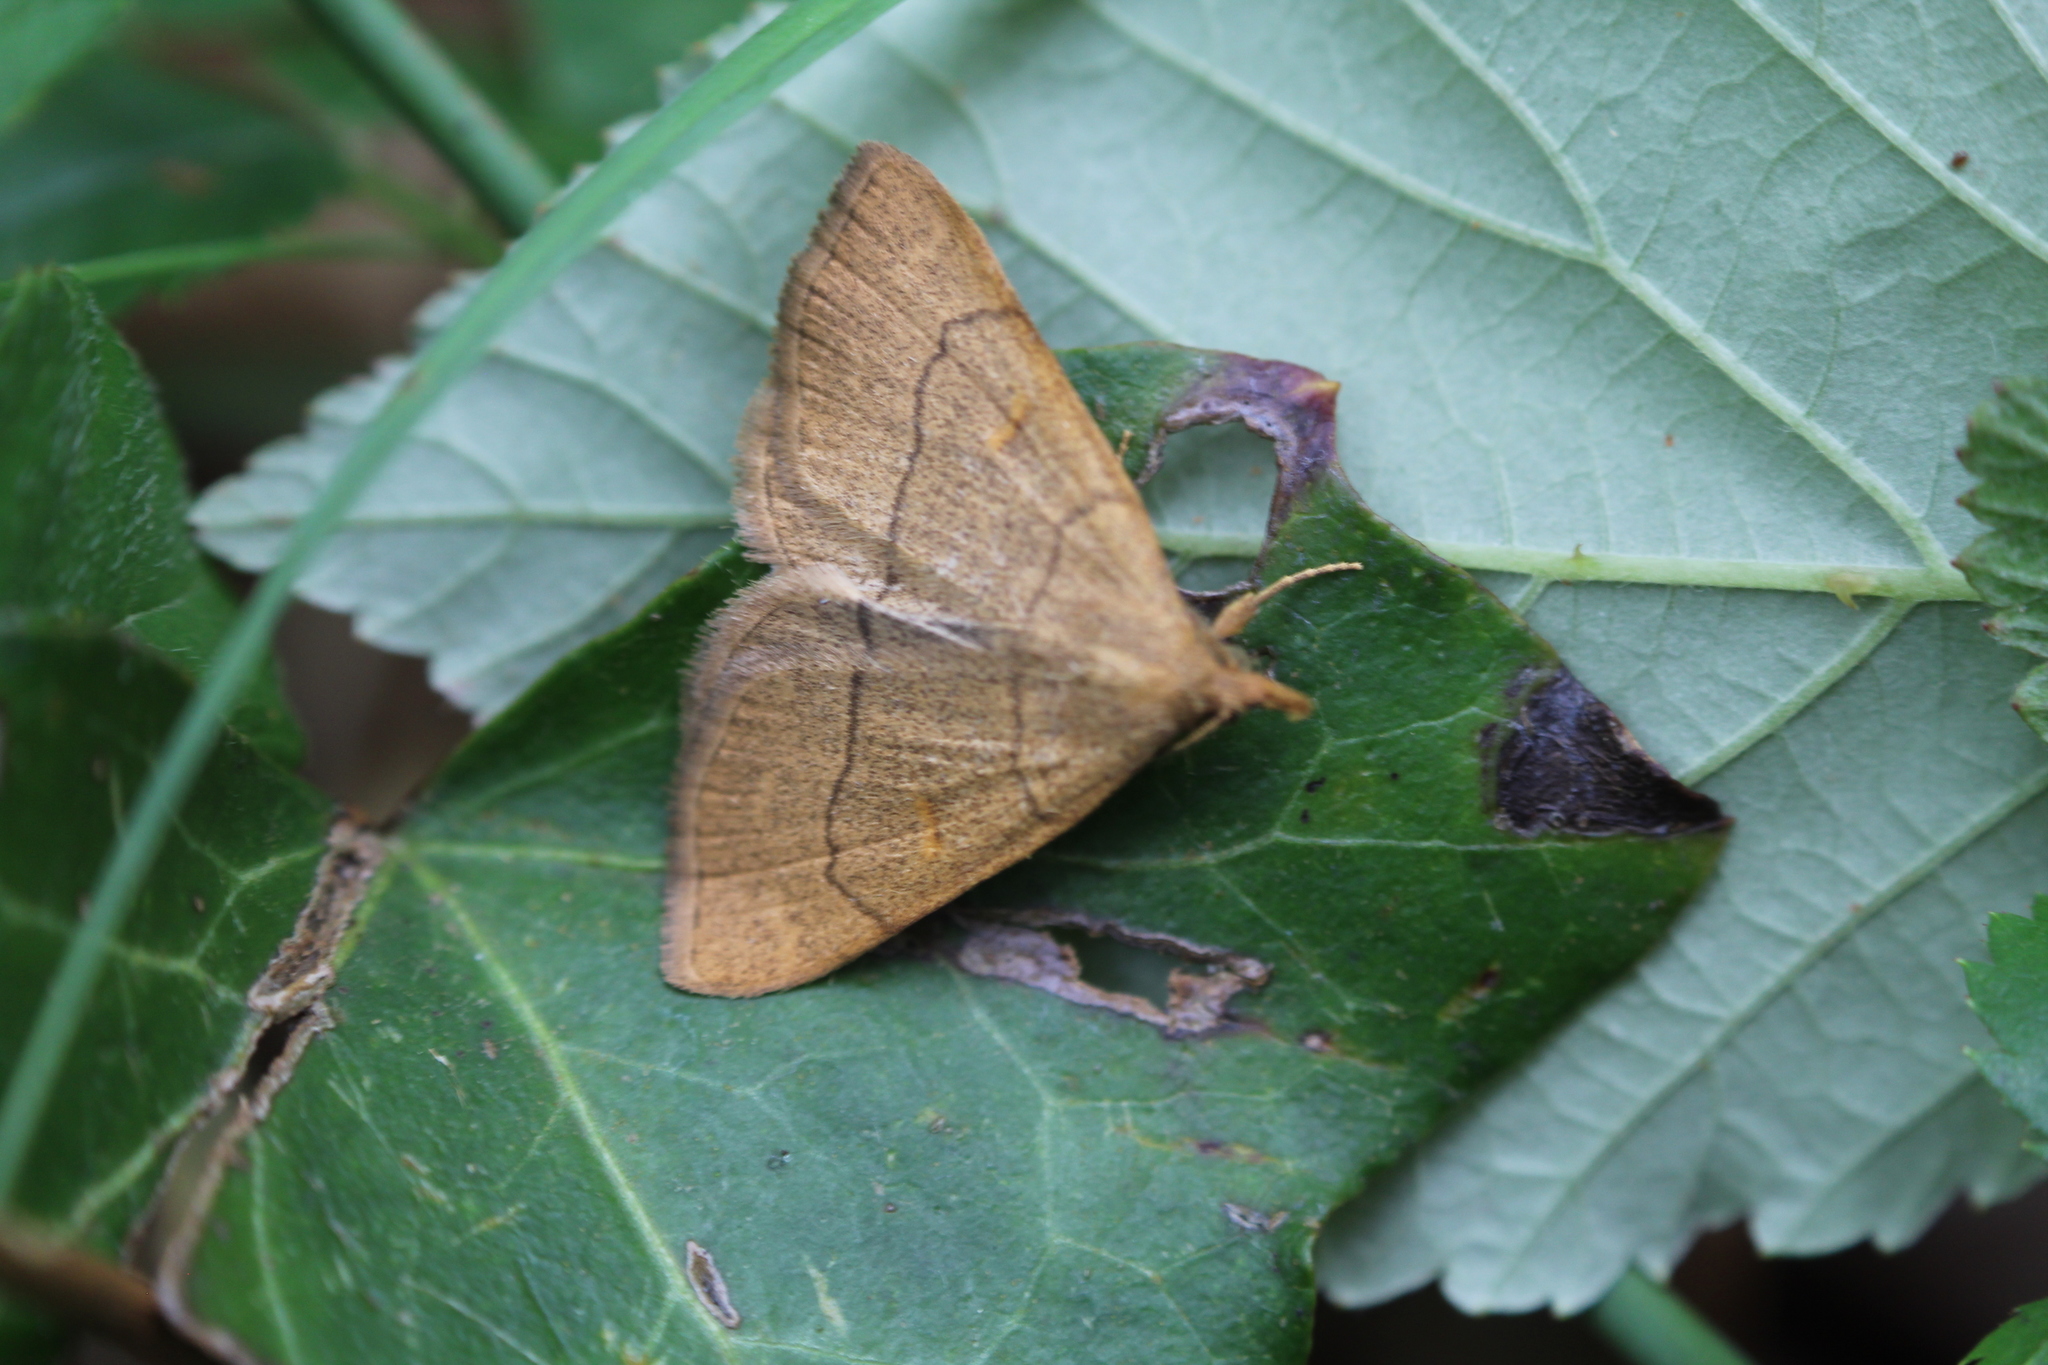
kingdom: Animalia
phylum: Arthropoda
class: Insecta
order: Lepidoptera
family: Erebidae
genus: Paracolax
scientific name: Paracolax tristalis
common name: Clay fan-foot
